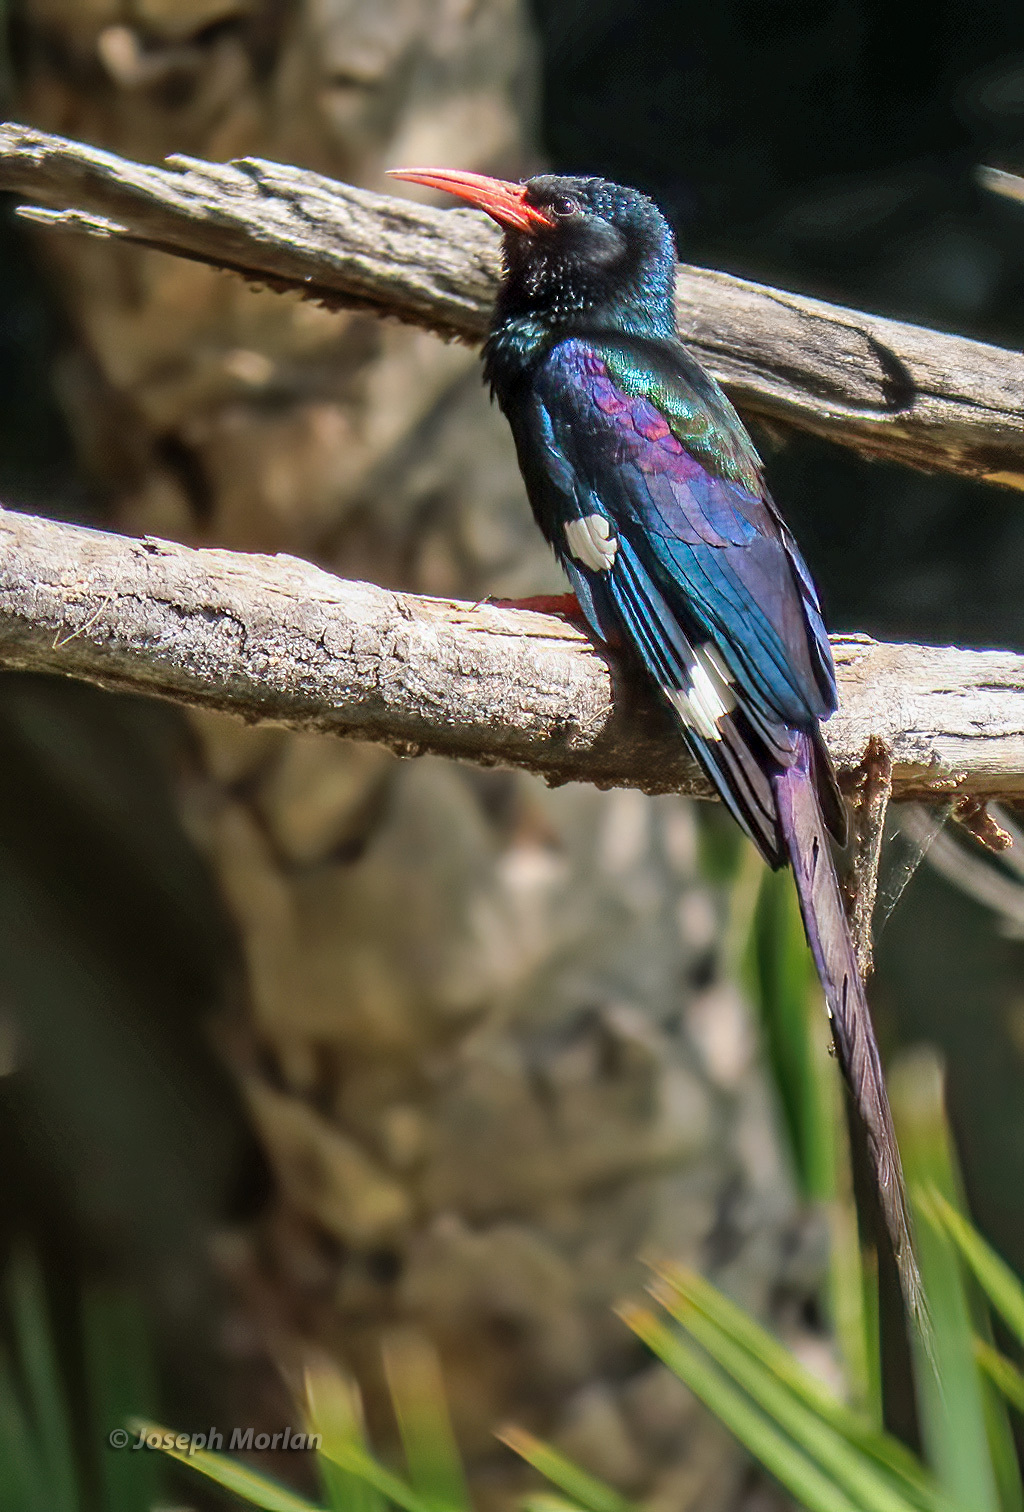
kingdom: Animalia
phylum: Chordata
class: Aves
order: Bucerotiformes
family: Phoeniculidae
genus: Phoeniculus
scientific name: Phoeniculus purpureus
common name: Green woodhoopoe
